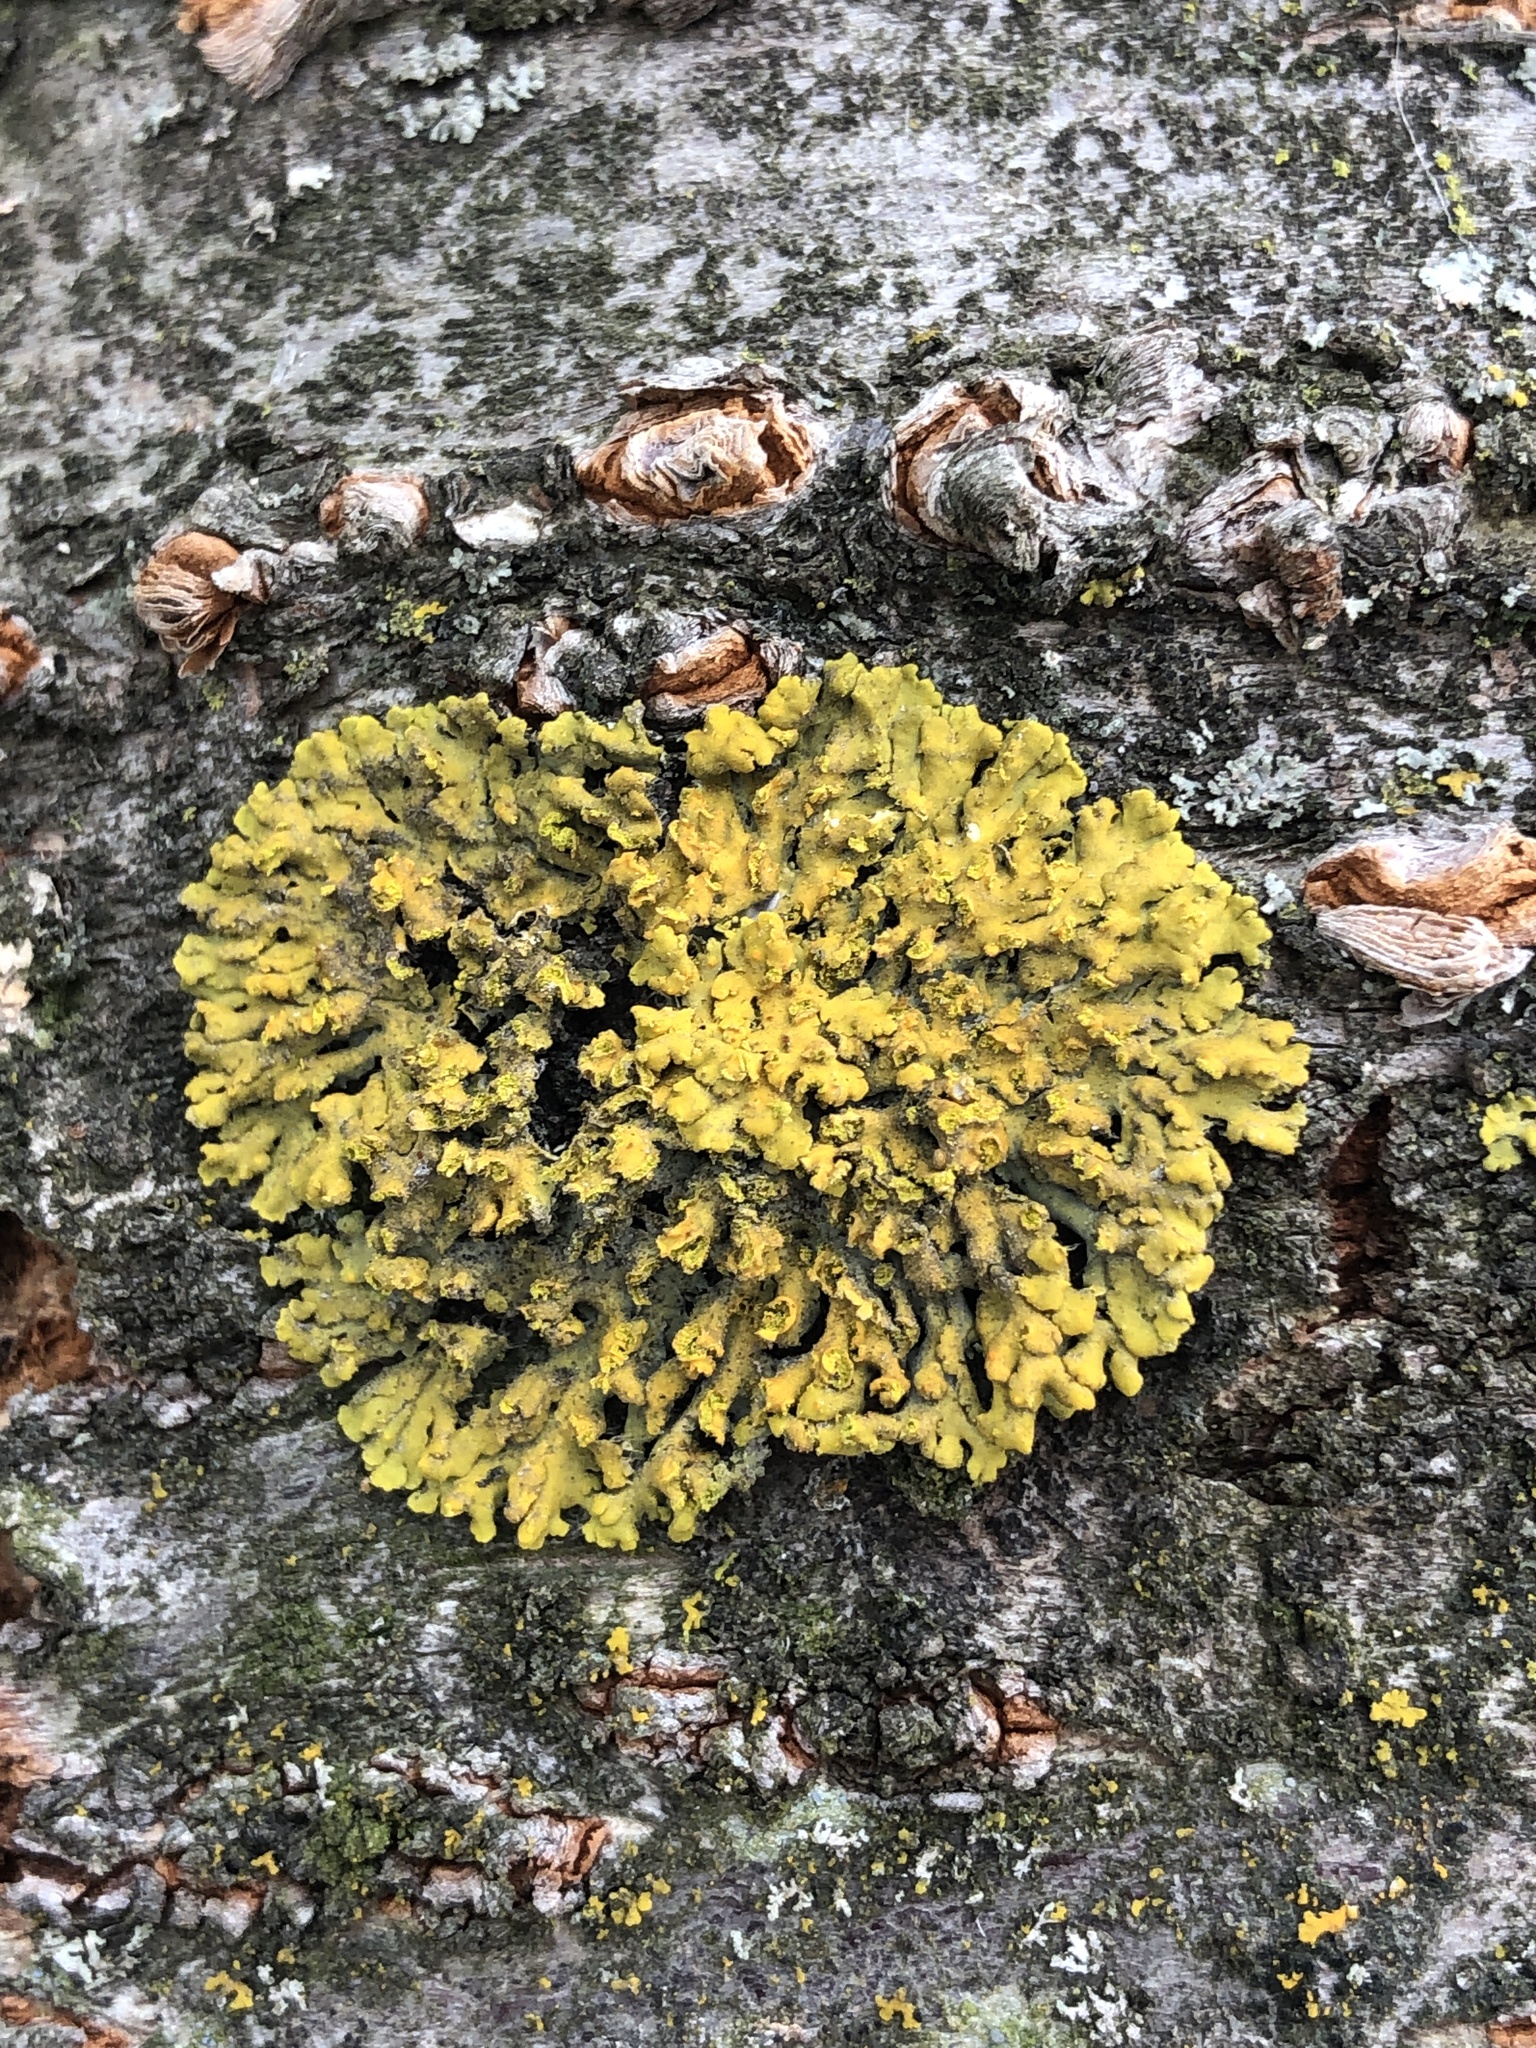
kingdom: Fungi
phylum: Ascomycota
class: Lecanoromycetes
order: Teloschistales
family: Teloschistaceae
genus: Oxneria
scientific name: Oxneria fallax
